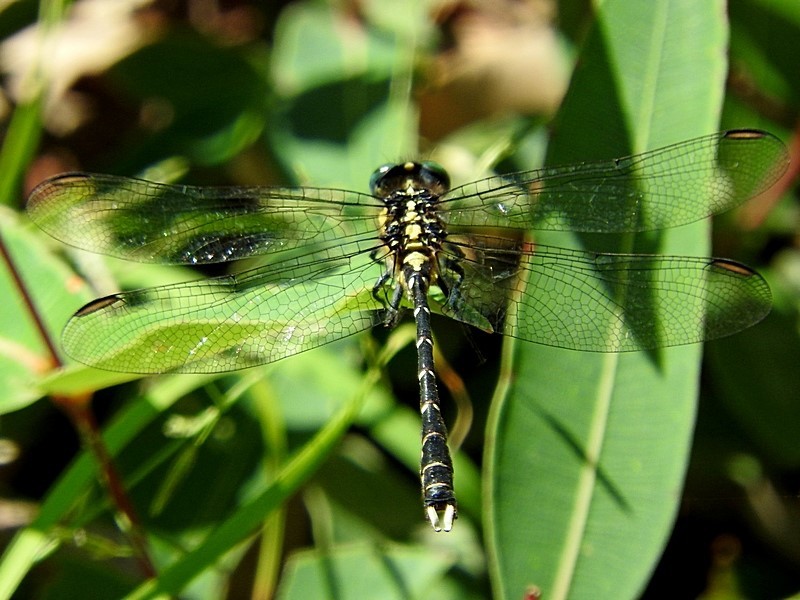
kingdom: Animalia
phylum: Arthropoda
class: Insecta
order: Odonata
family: Gomphidae
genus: Hemigomphus
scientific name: Hemigomphus gouldii
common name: Southern vicetail
